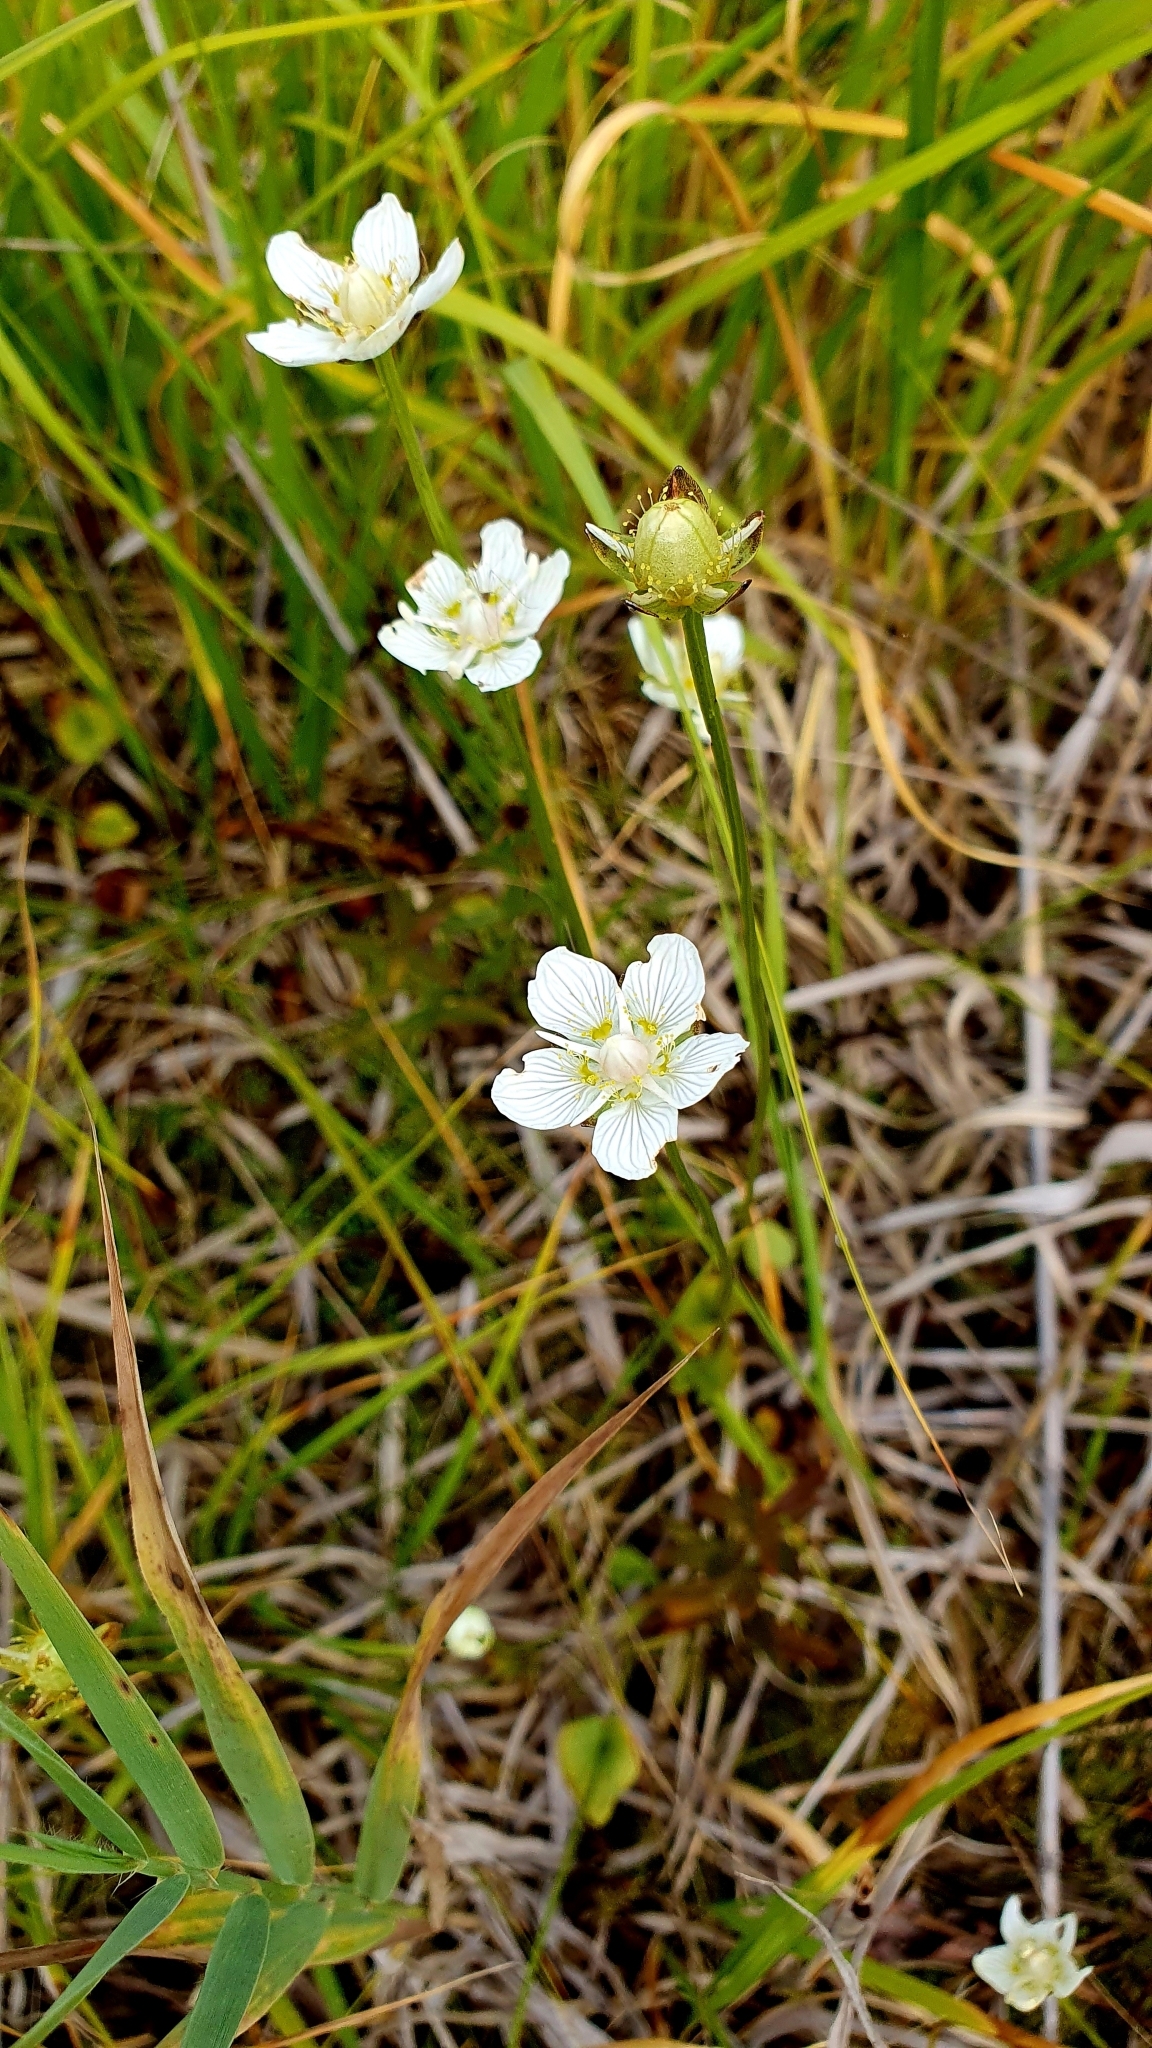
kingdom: Plantae
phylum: Tracheophyta
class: Magnoliopsida
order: Celastrales
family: Parnassiaceae
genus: Parnassia
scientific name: Parnassia palustris
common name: Grass-of-parnassus
